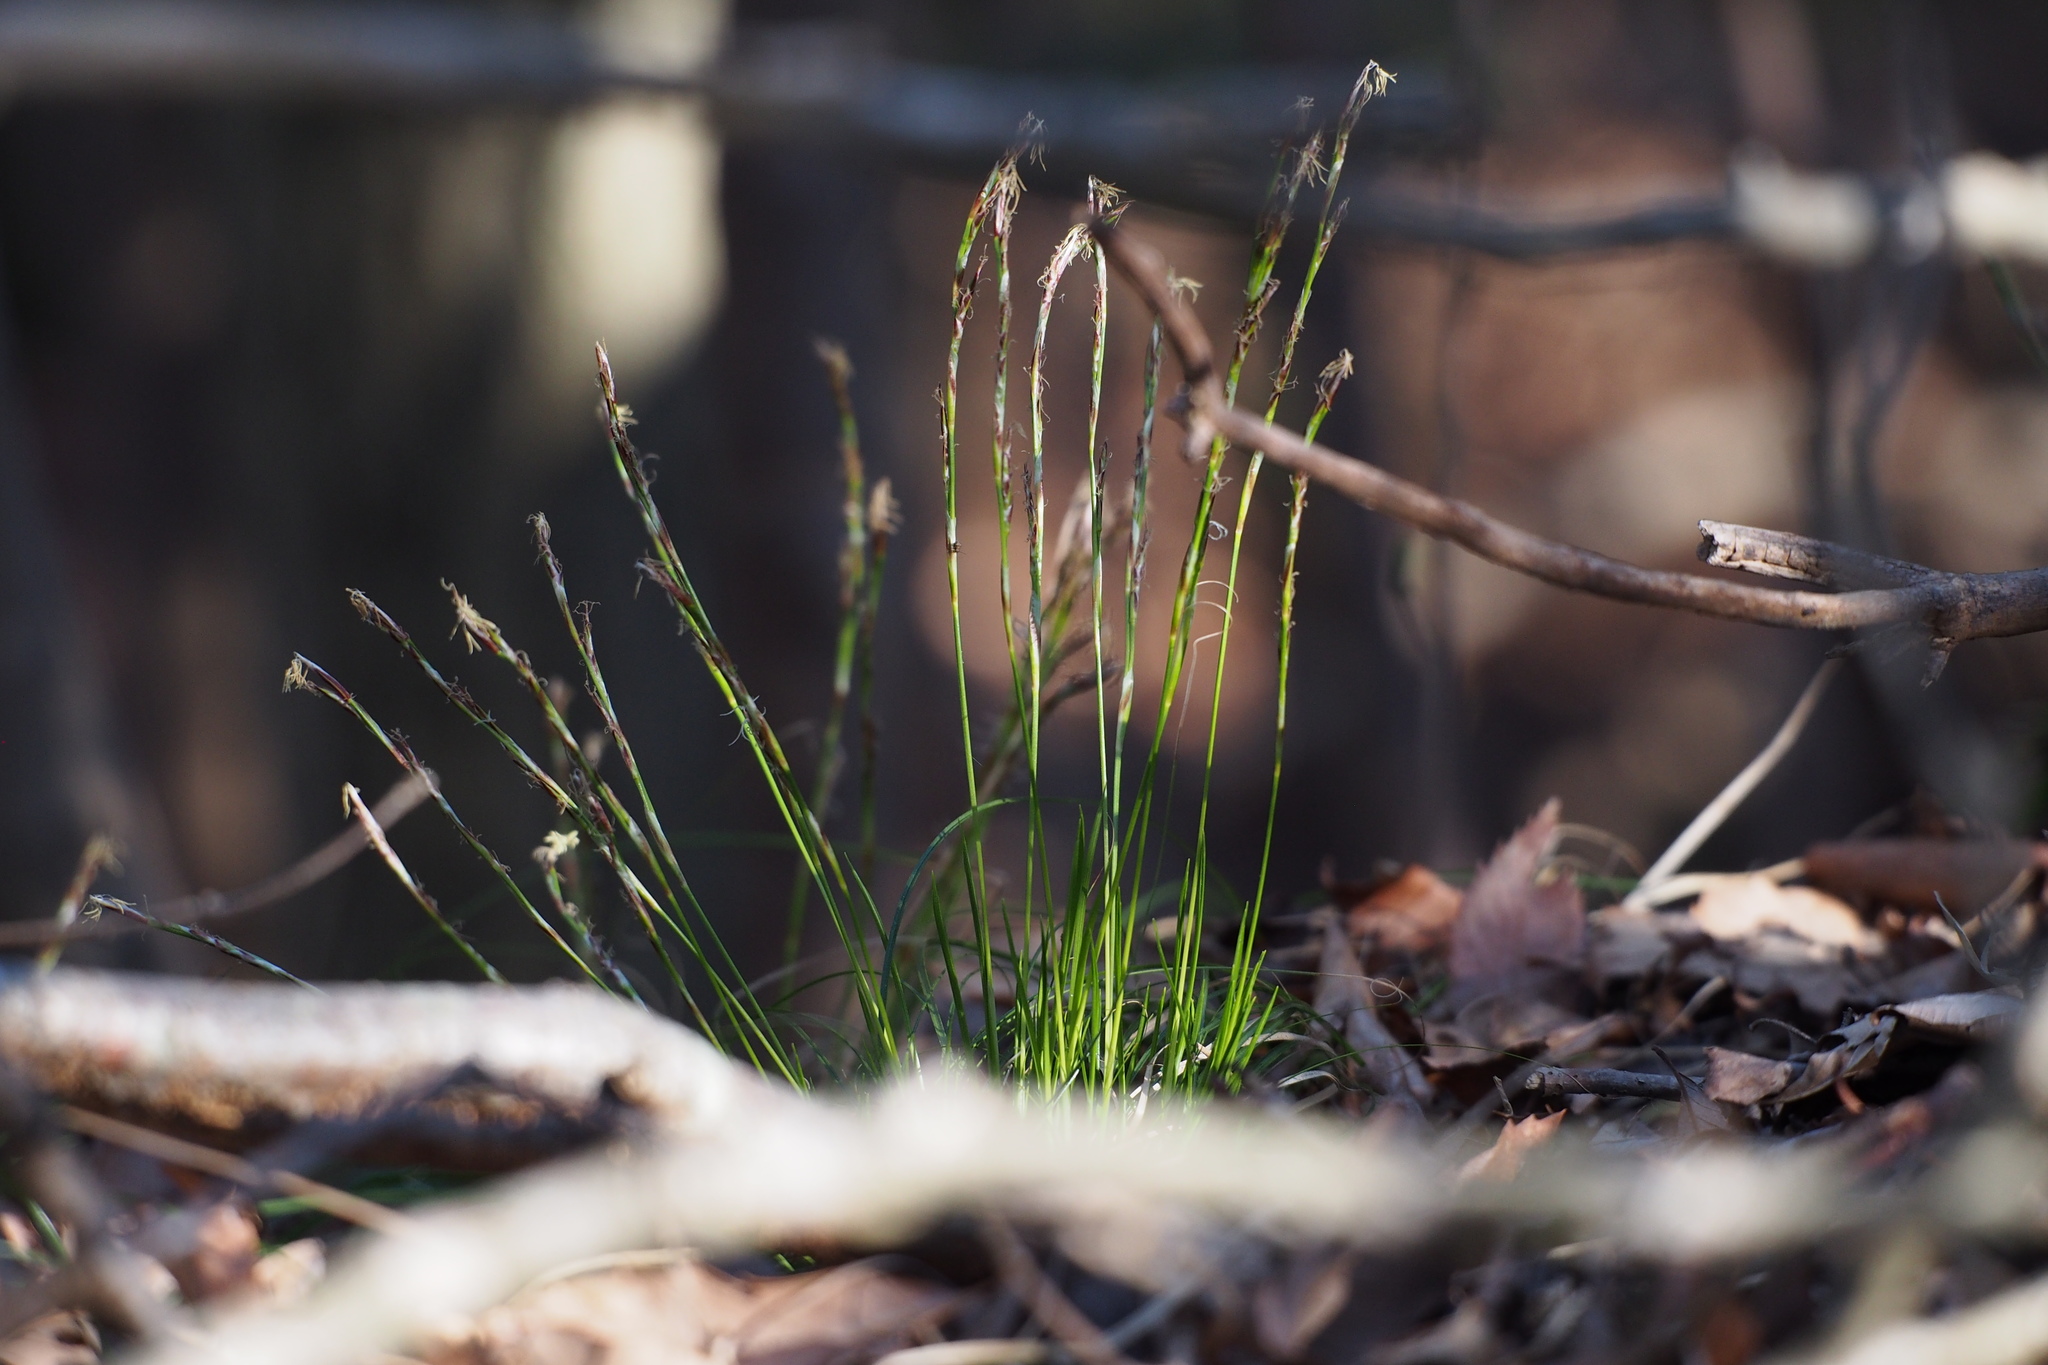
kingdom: Plantae
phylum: Tracheophyta
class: Liliopsida
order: Poales
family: Cyperaceae
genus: Carex
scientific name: Carex lanceolata
